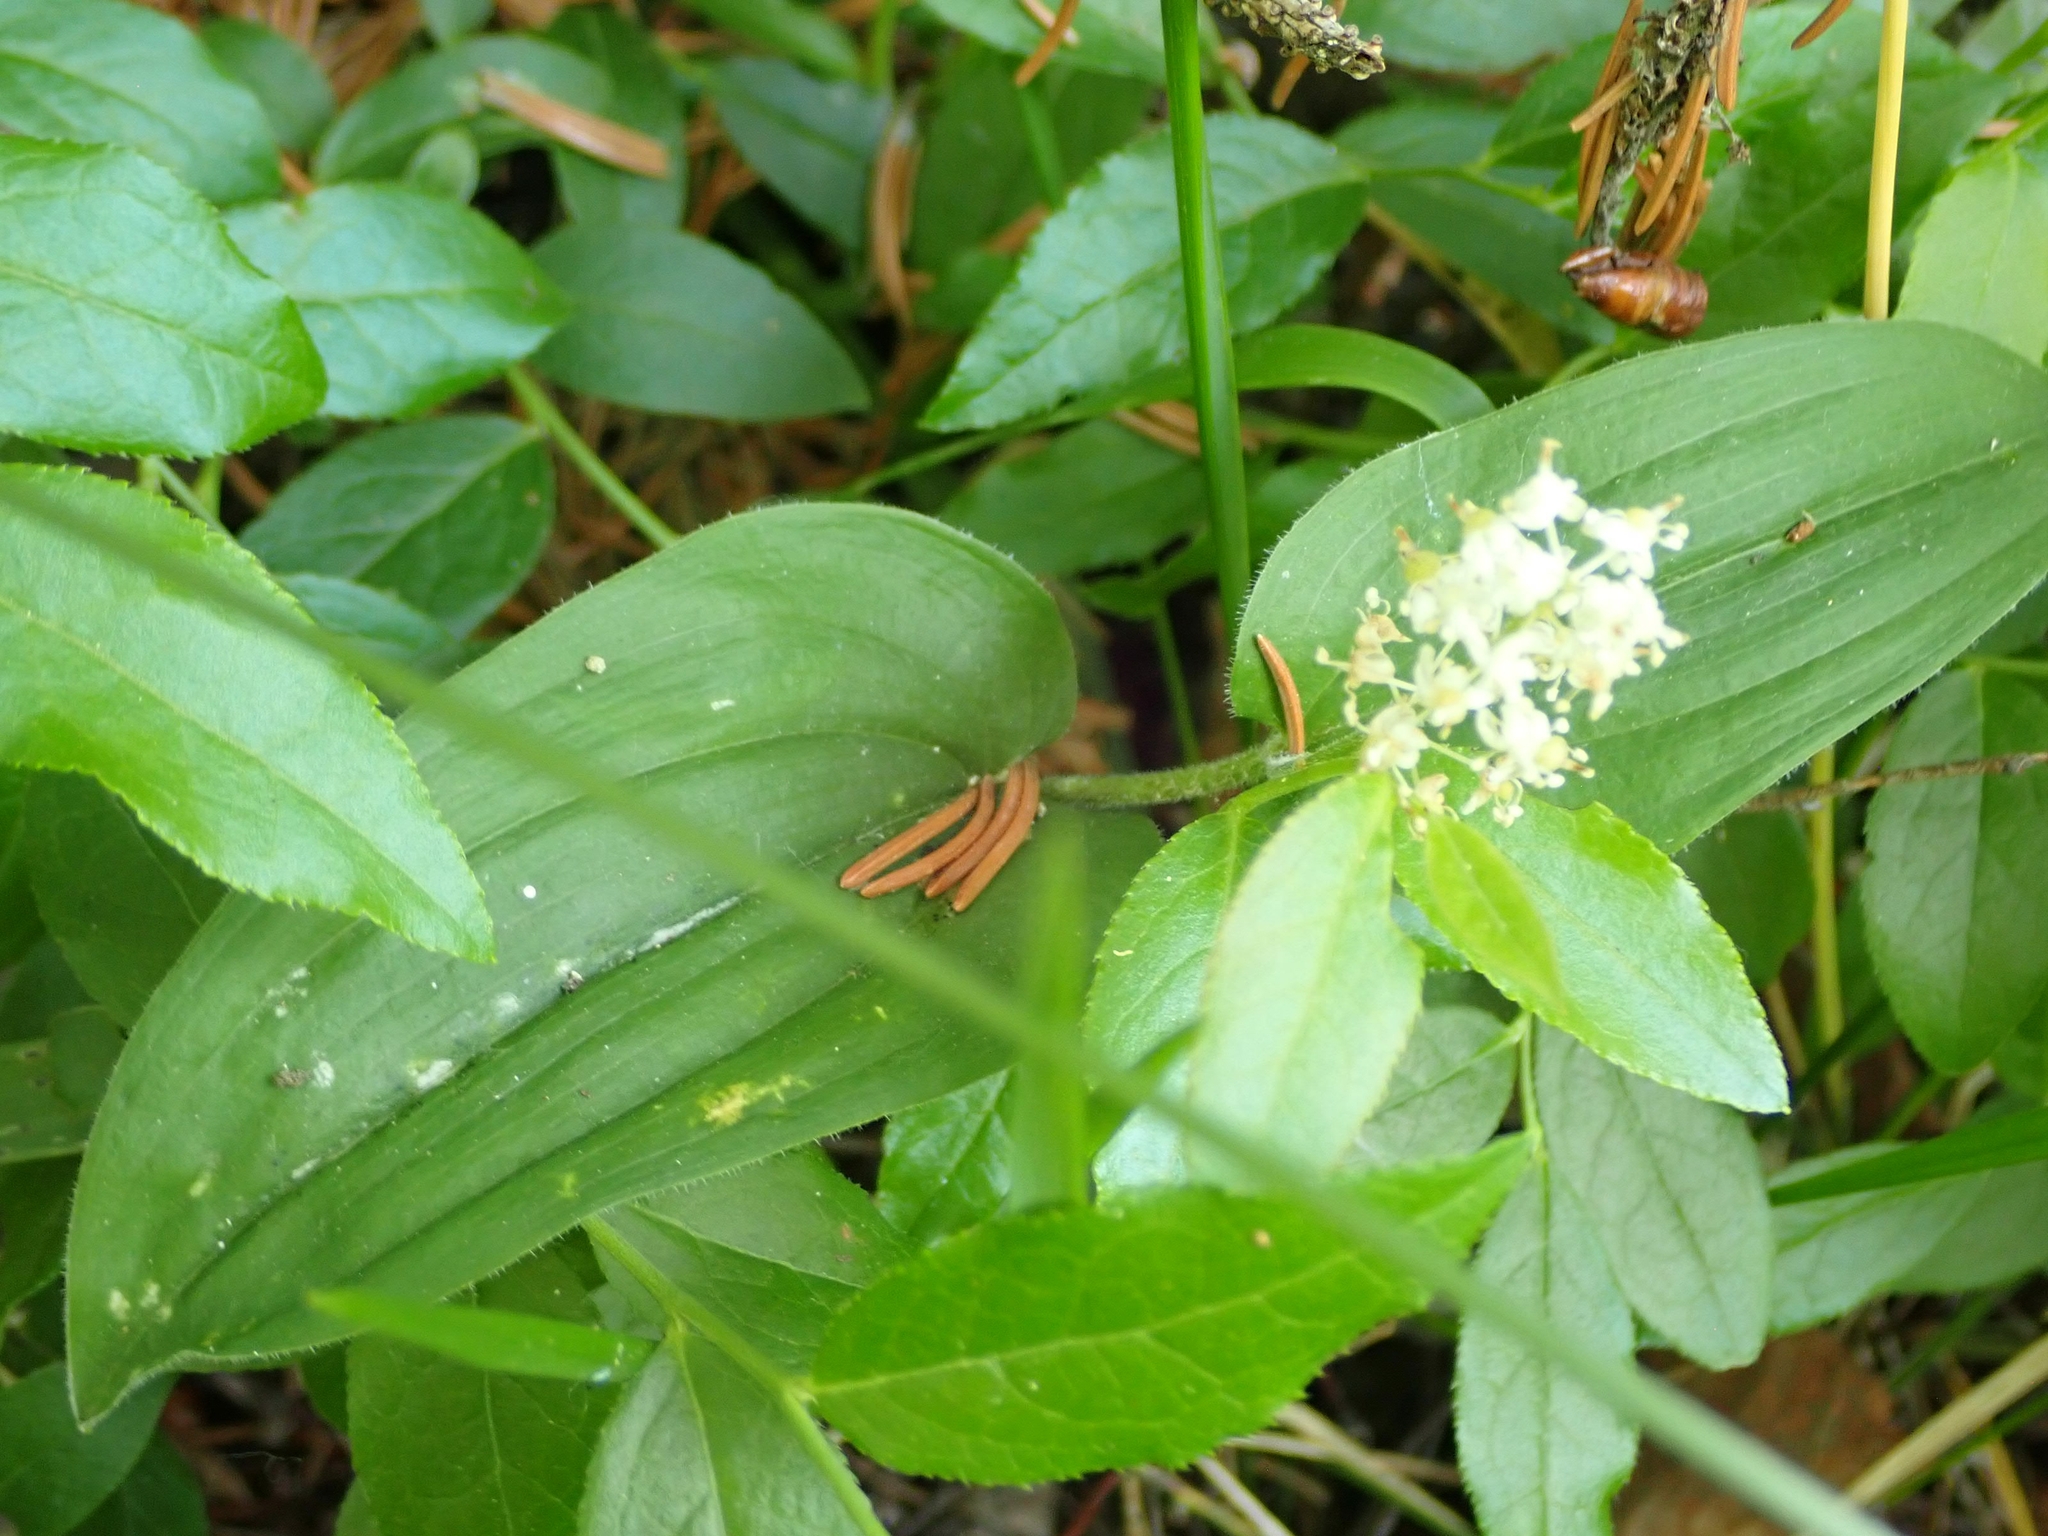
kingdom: Plantae
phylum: Tracheophyta
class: Liliopsida
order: Asparagales
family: Asparagaceae
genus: Maianthemum
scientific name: Maianthemum canadense
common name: False lily-of-the-valley
